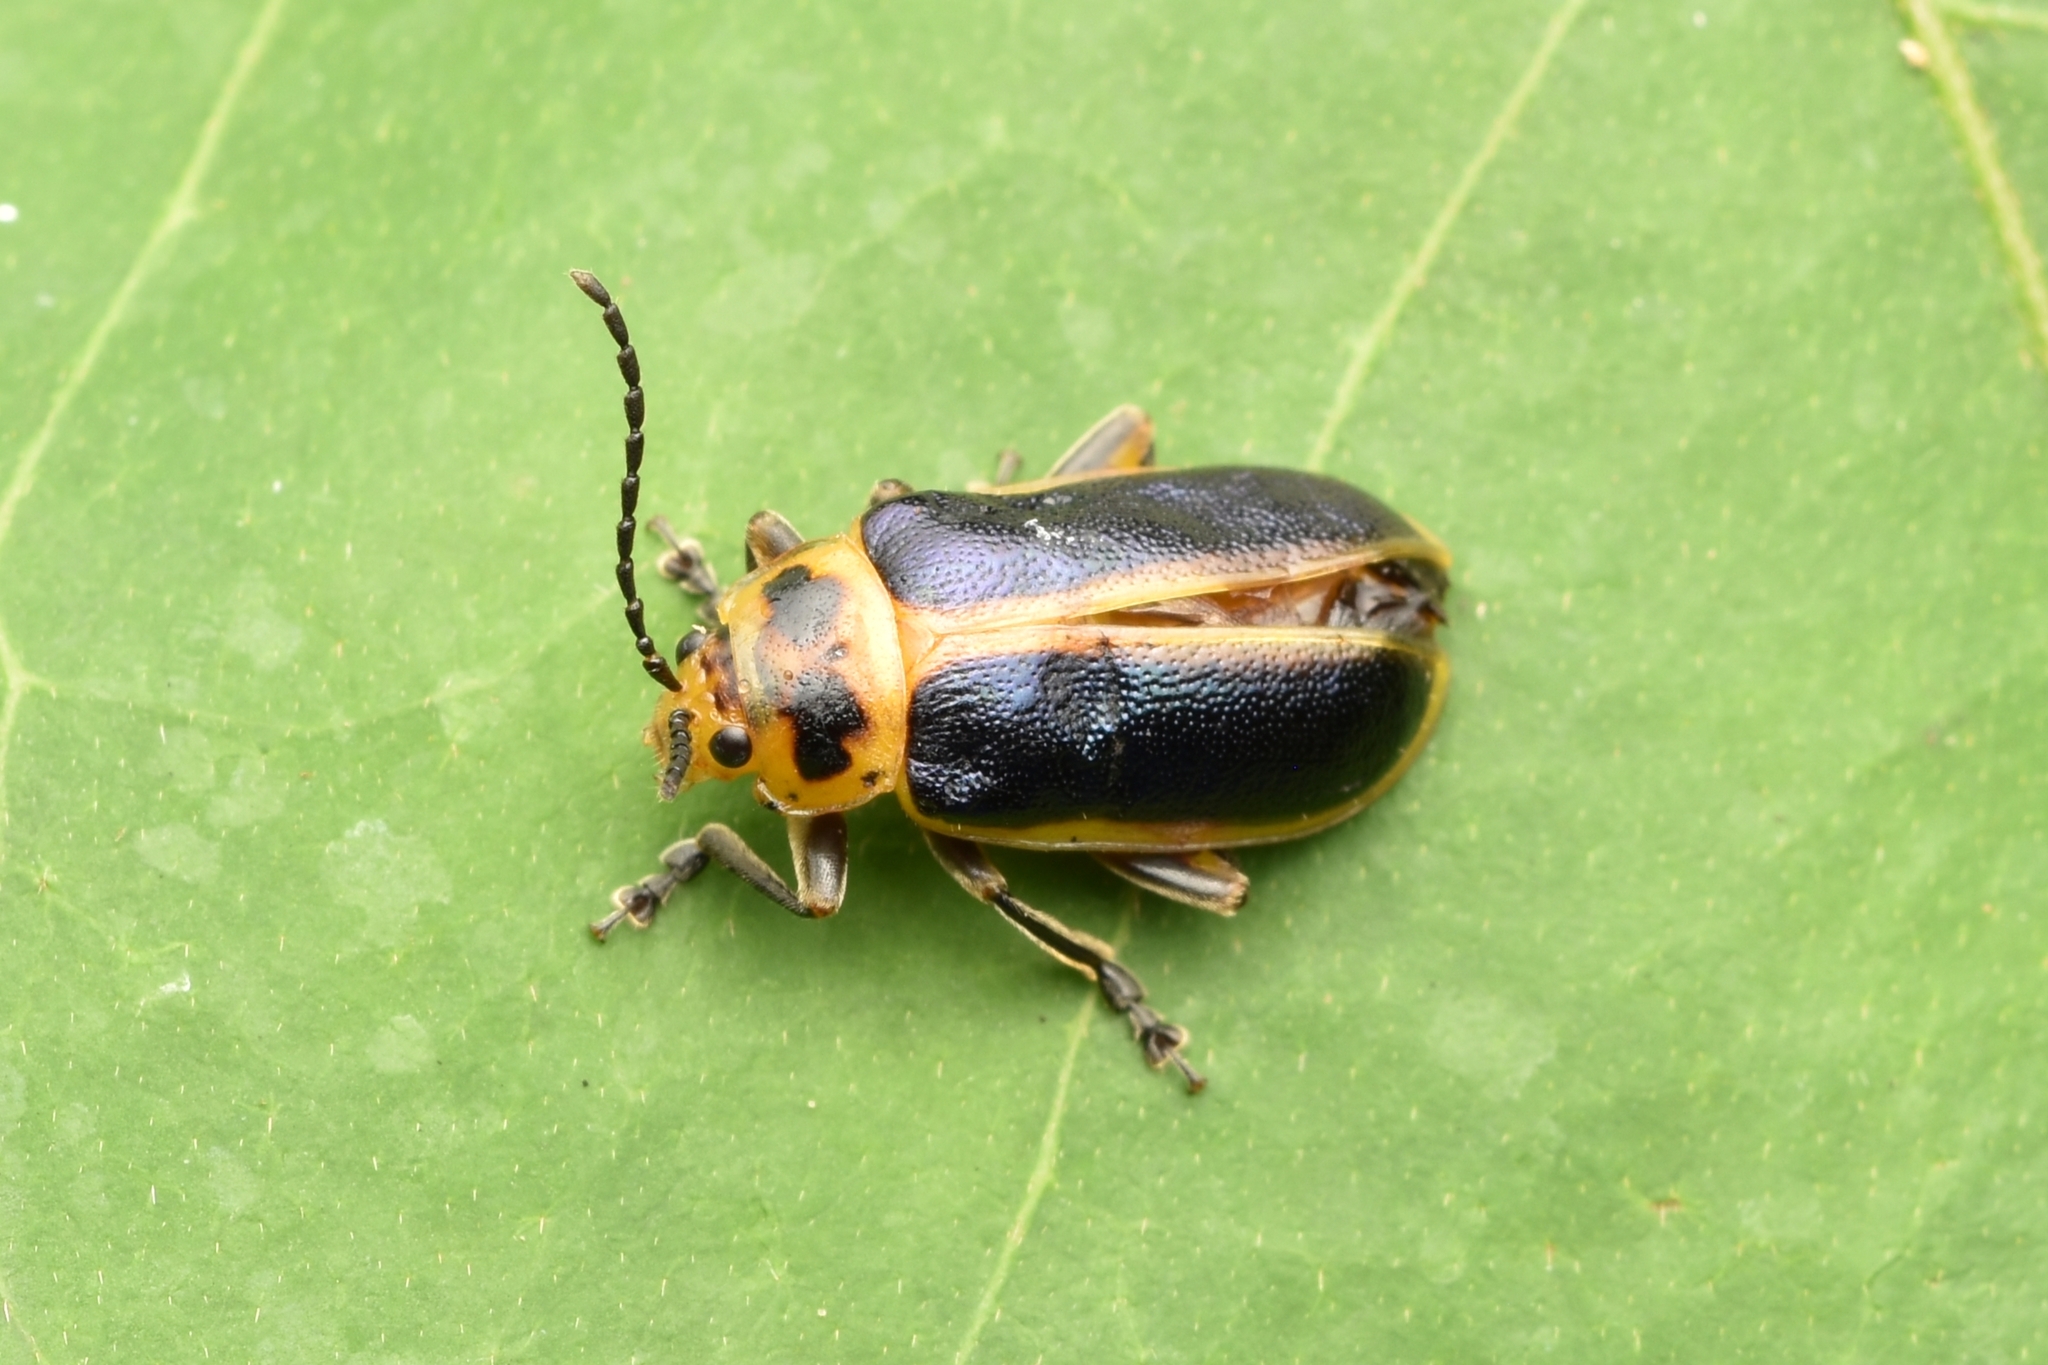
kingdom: Animalia
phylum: Arthropoda
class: Insecta
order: Coleoptera
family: Chrysomelidae
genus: Cacoscelis
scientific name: Cacoscelis marginata
